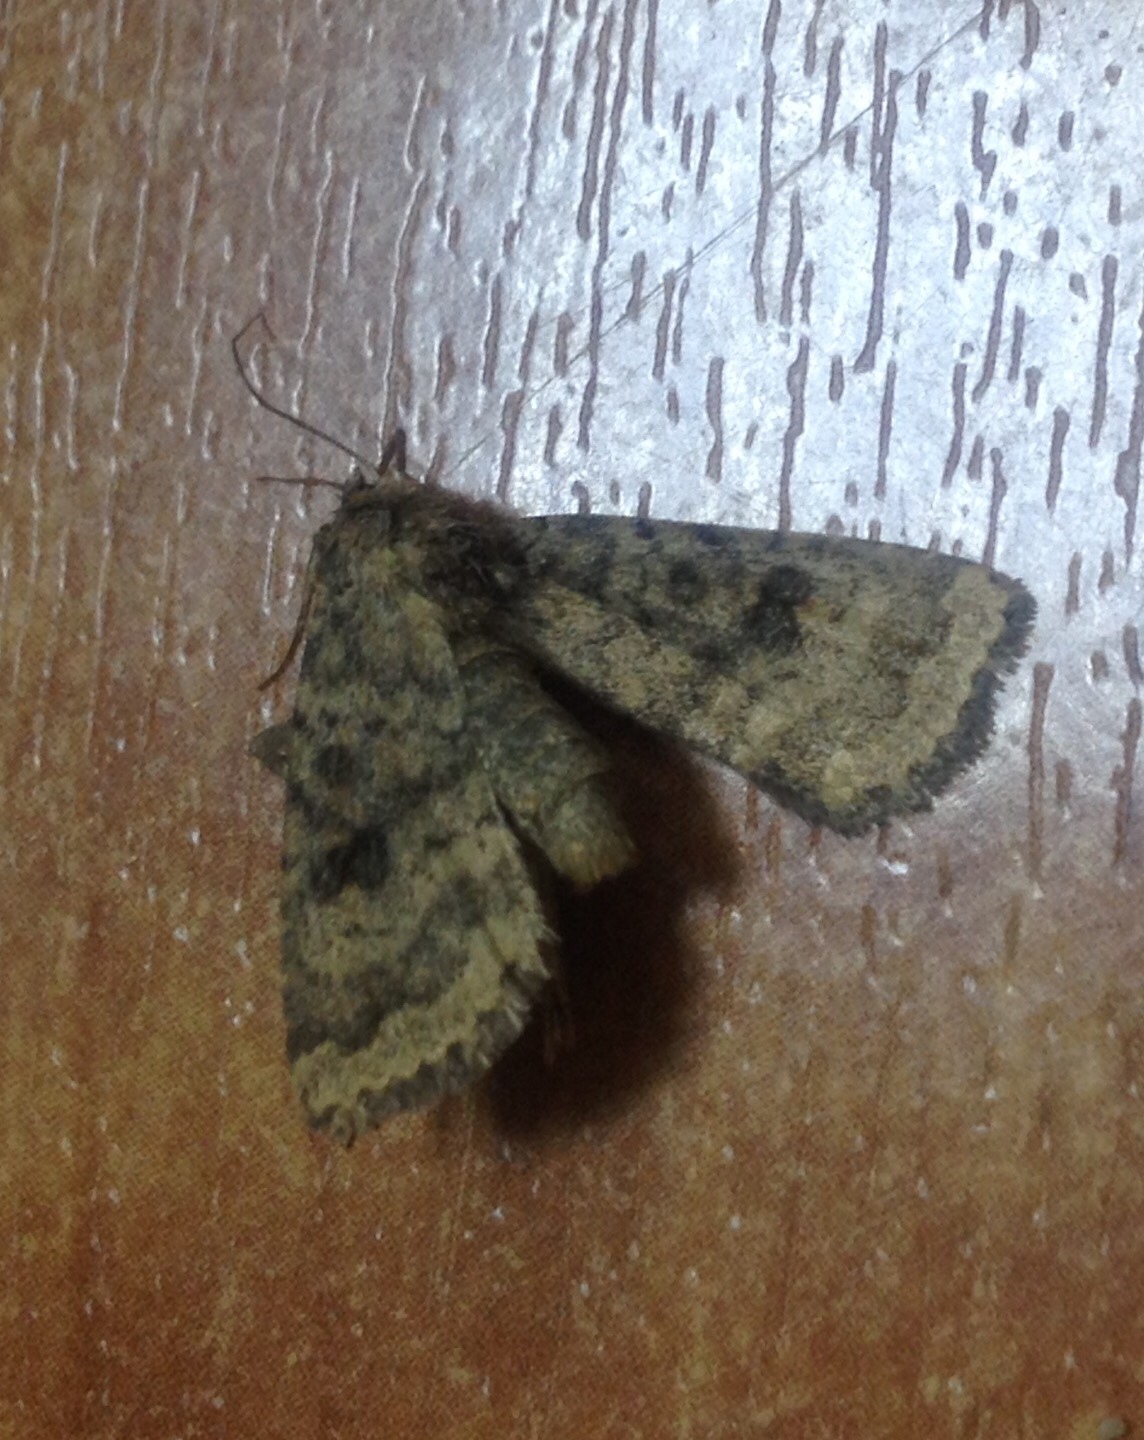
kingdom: Animalia
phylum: Arthropoda
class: Insecta
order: Lepidoptera
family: Noctuidae
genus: Caradrina
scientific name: Caradrina morpheus
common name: Mottled rustic
